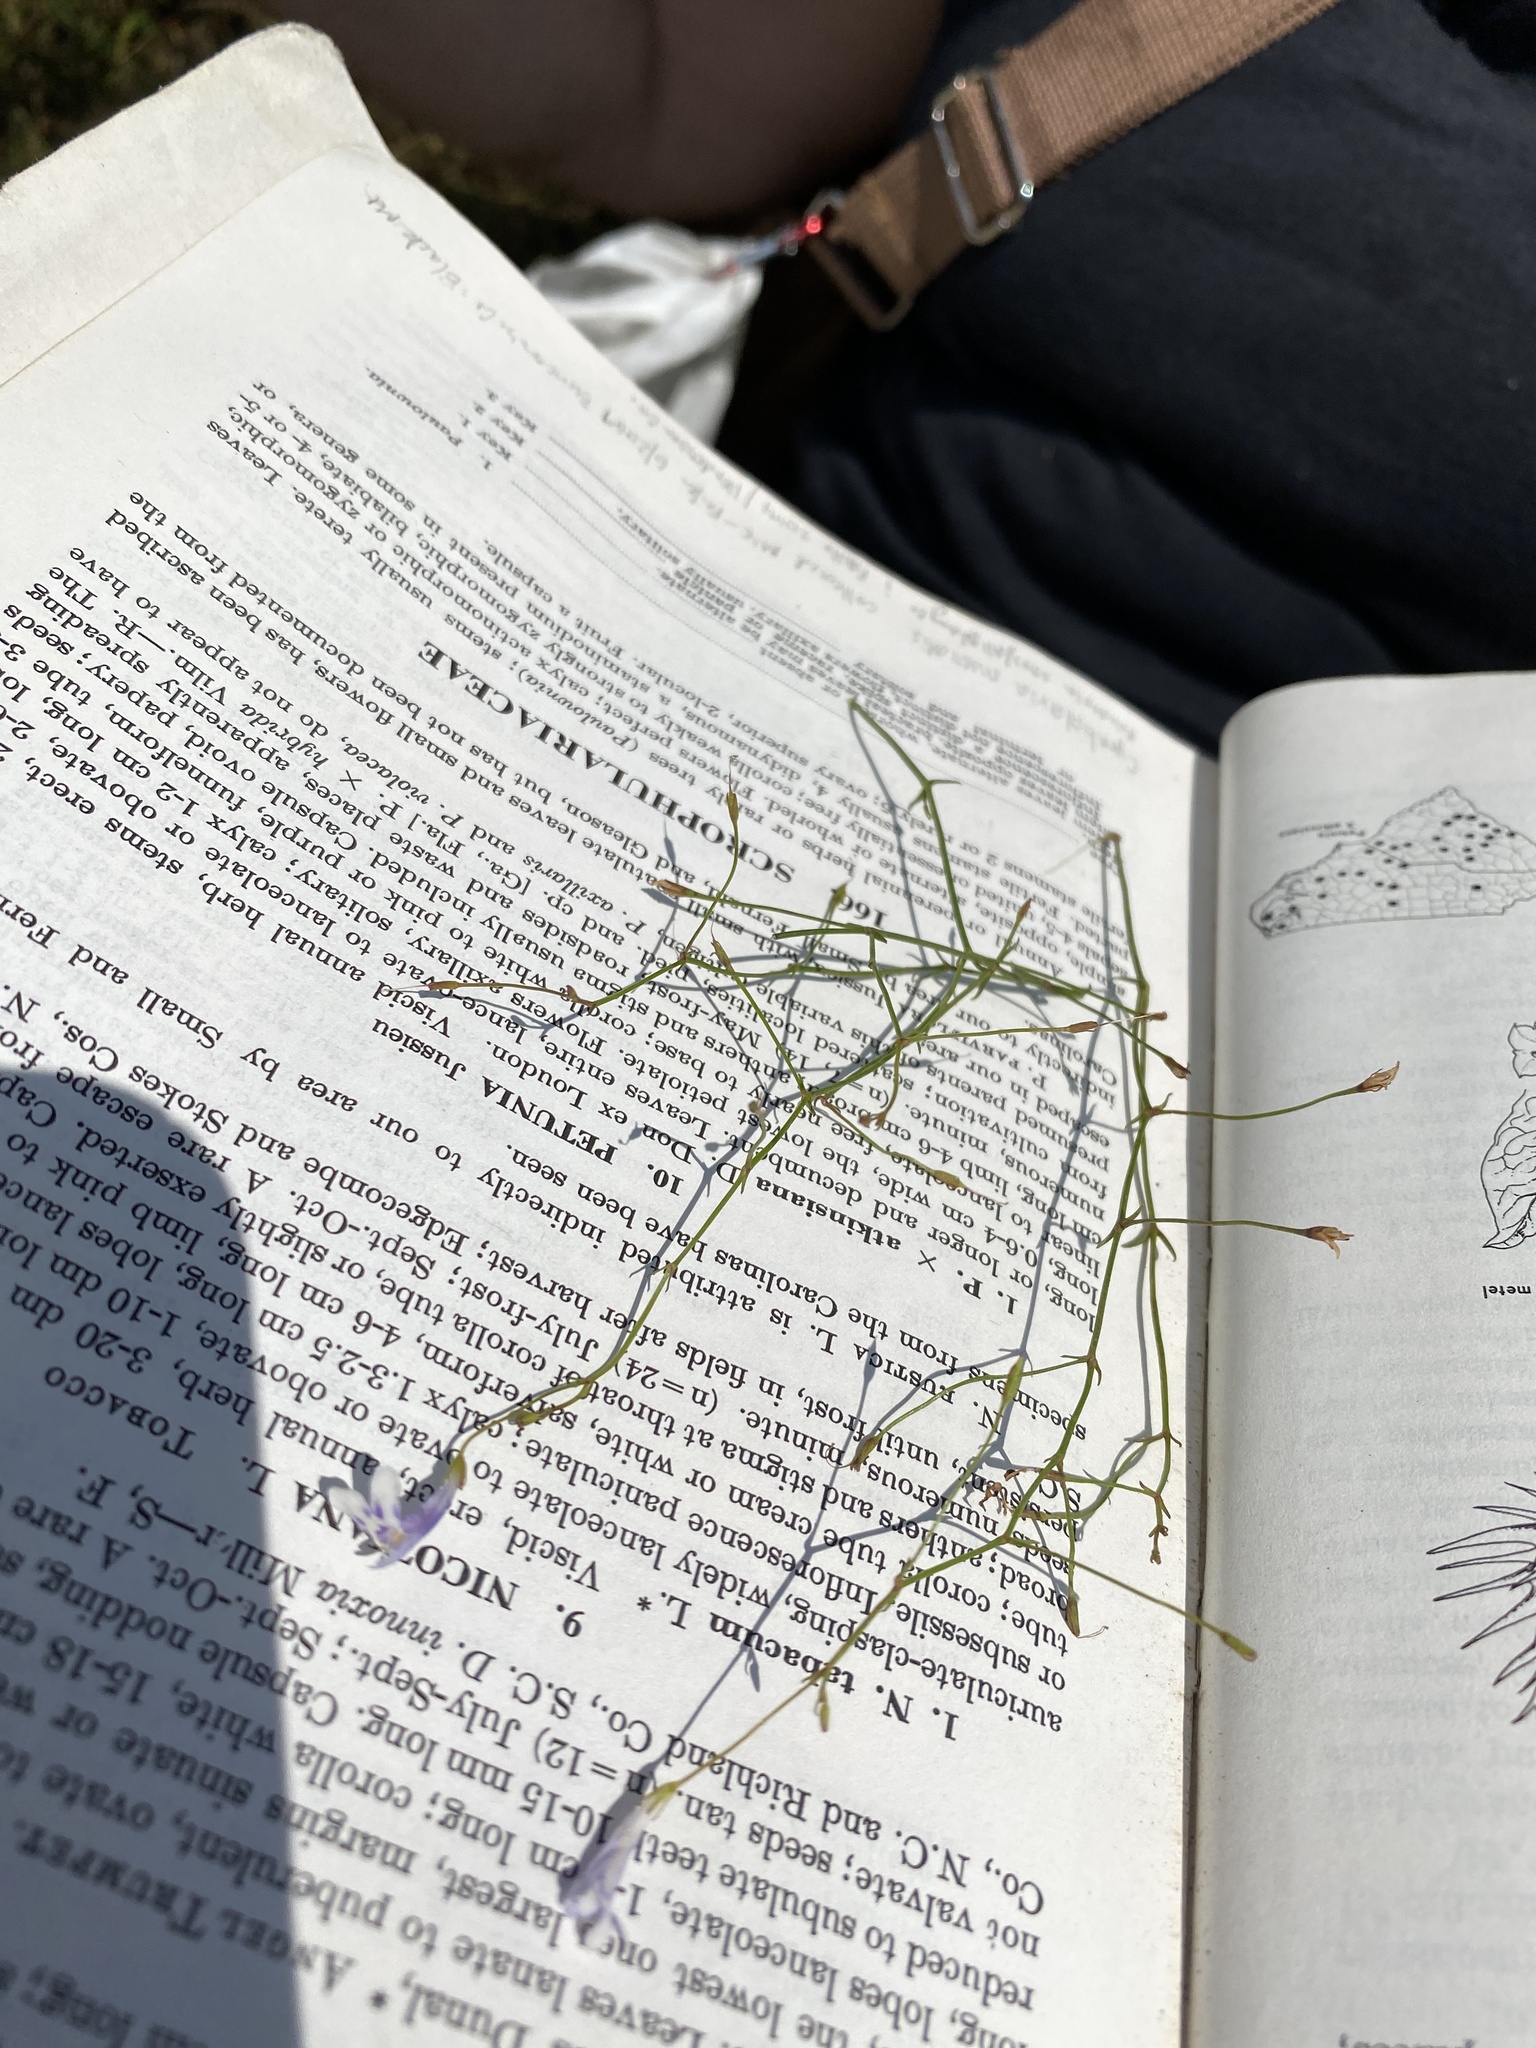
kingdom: Plantae
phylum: Tracheophyta
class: Magnoliopsida
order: Lamiales
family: Linderniaceae
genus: Lindernia
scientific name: Lindernia monticola
